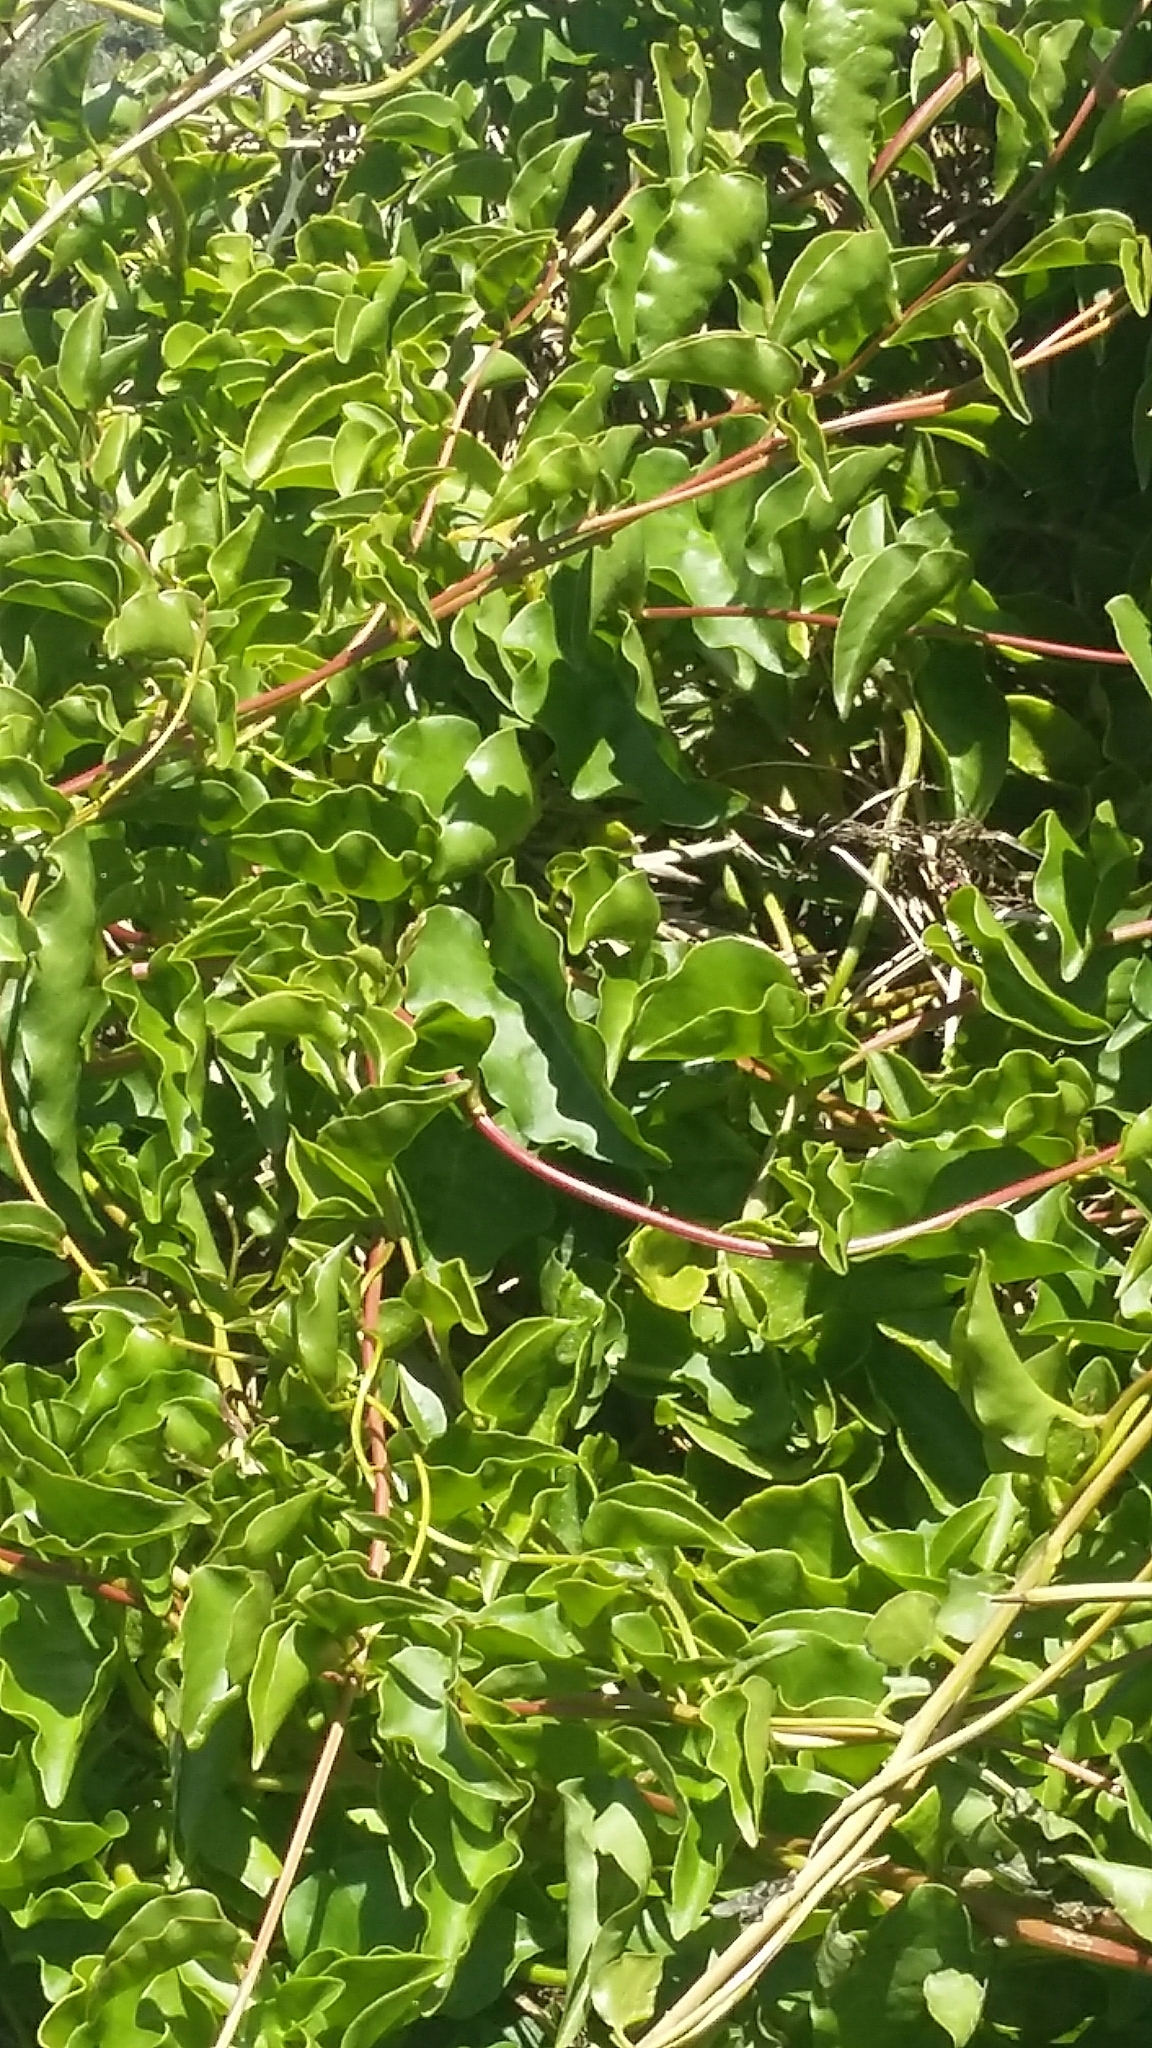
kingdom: Plantae
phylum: Tracheophyta
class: Magnoliopsida
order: Caryophyllales
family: Basellaceae
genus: Anredera
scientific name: Anredera cordifolia
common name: Heartleaf madeiravine
